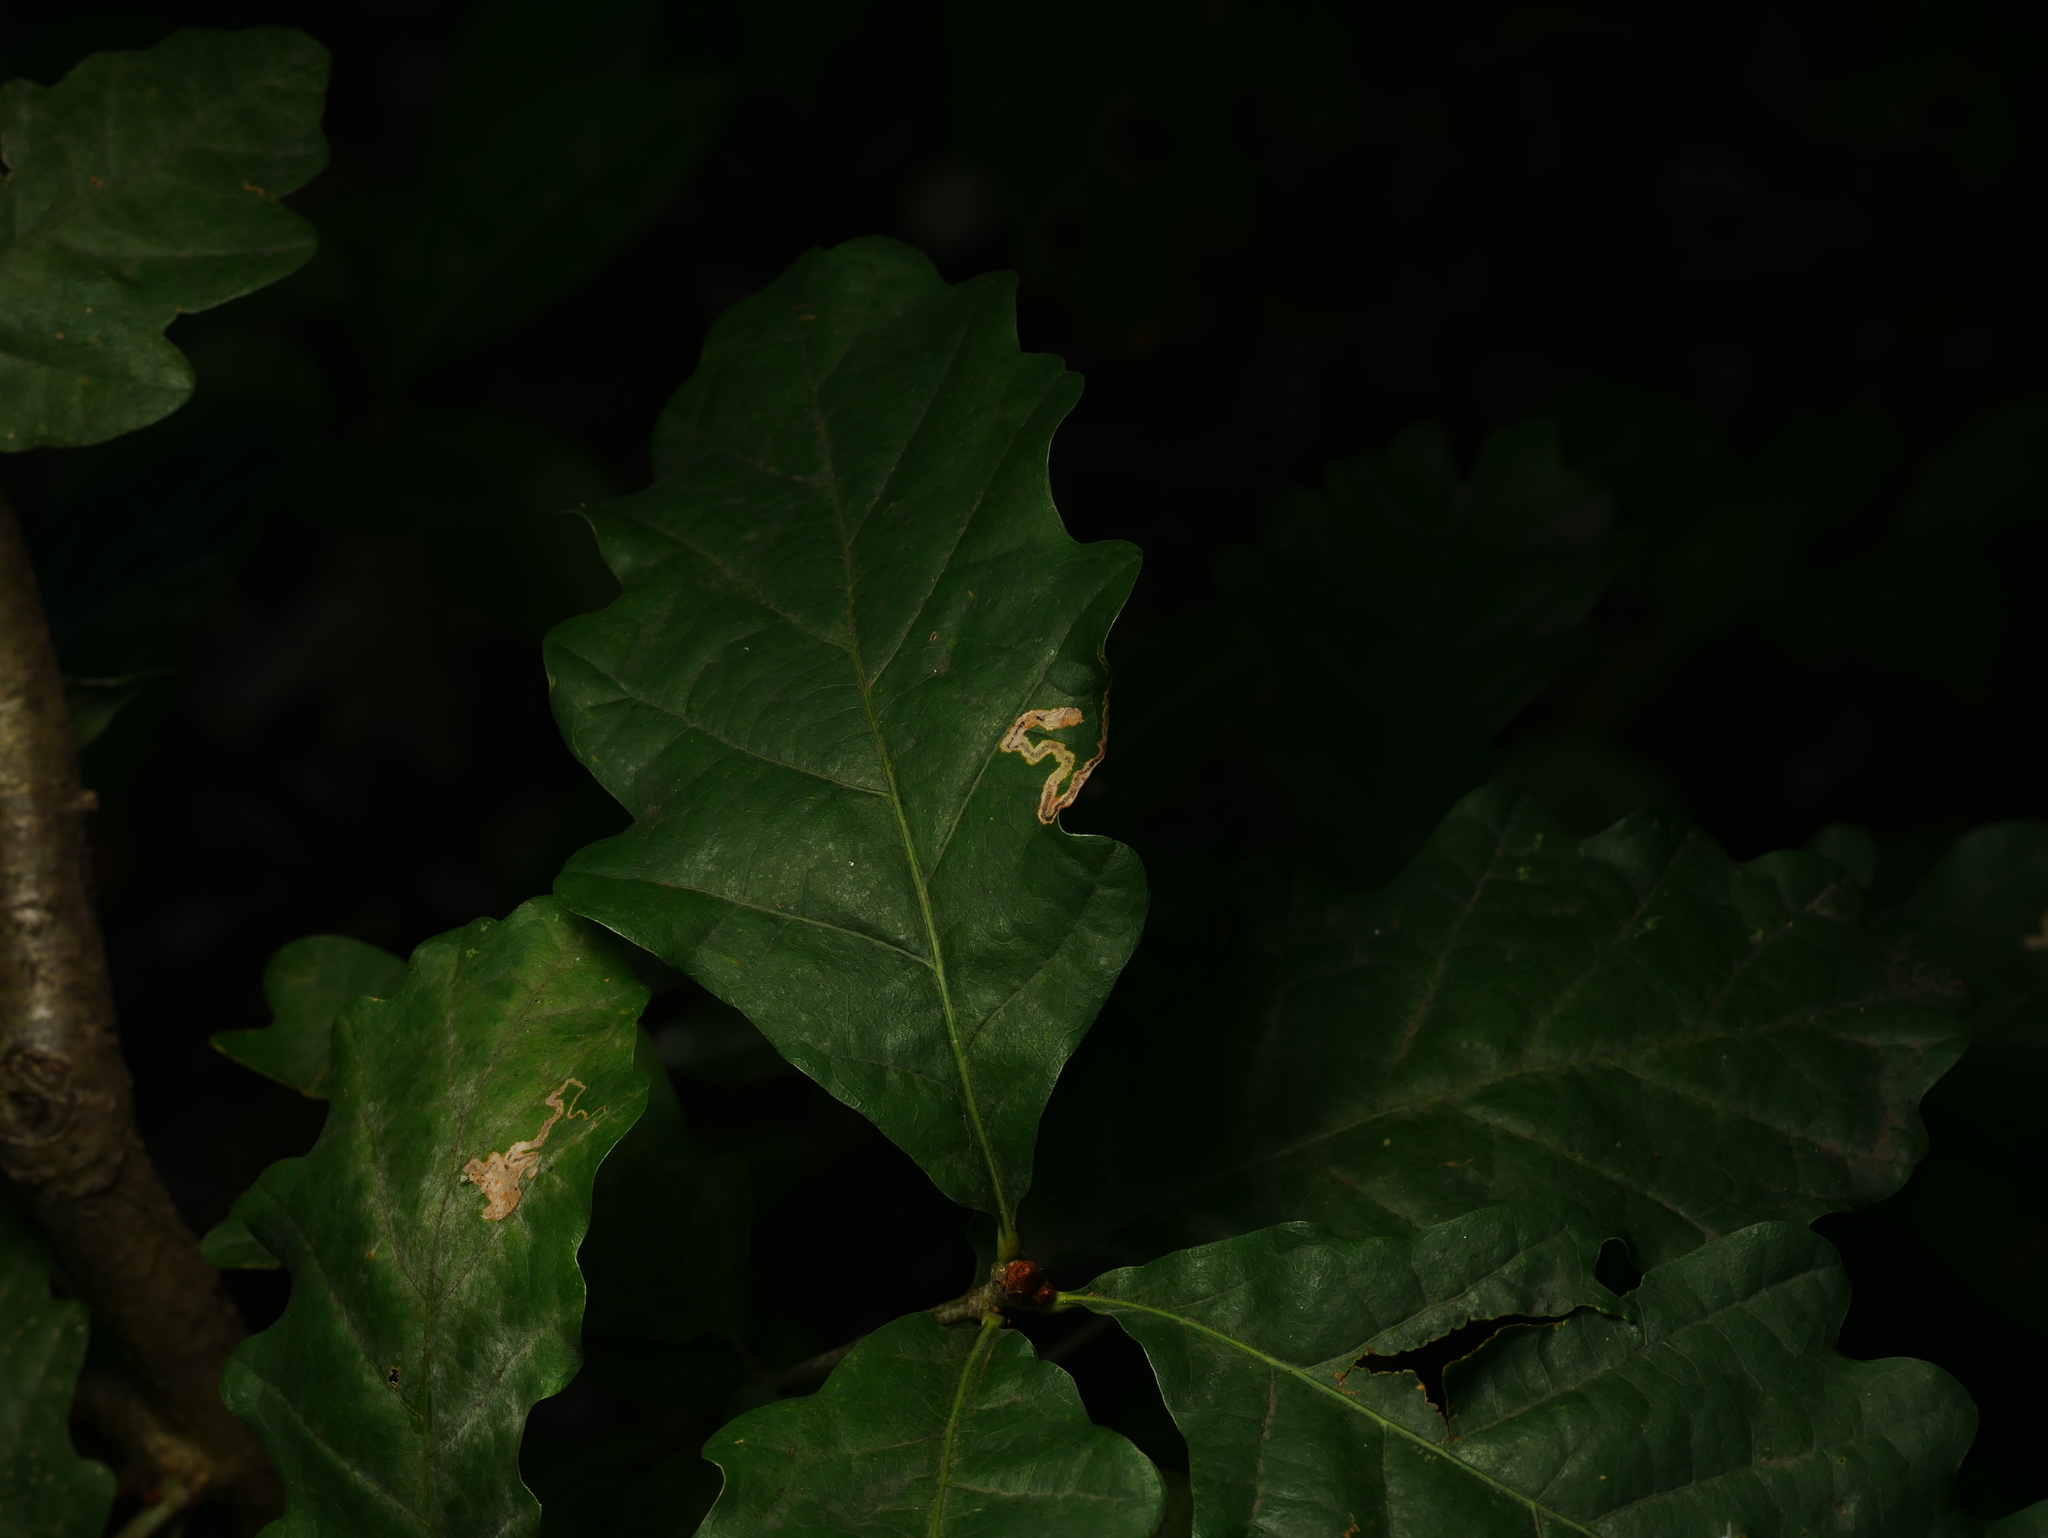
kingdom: Plantae
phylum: Tracheophyta
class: Magnoliopsida
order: Fagales
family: Fagaceae
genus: Quercus
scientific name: Quercus robur
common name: Pedunculate oak
